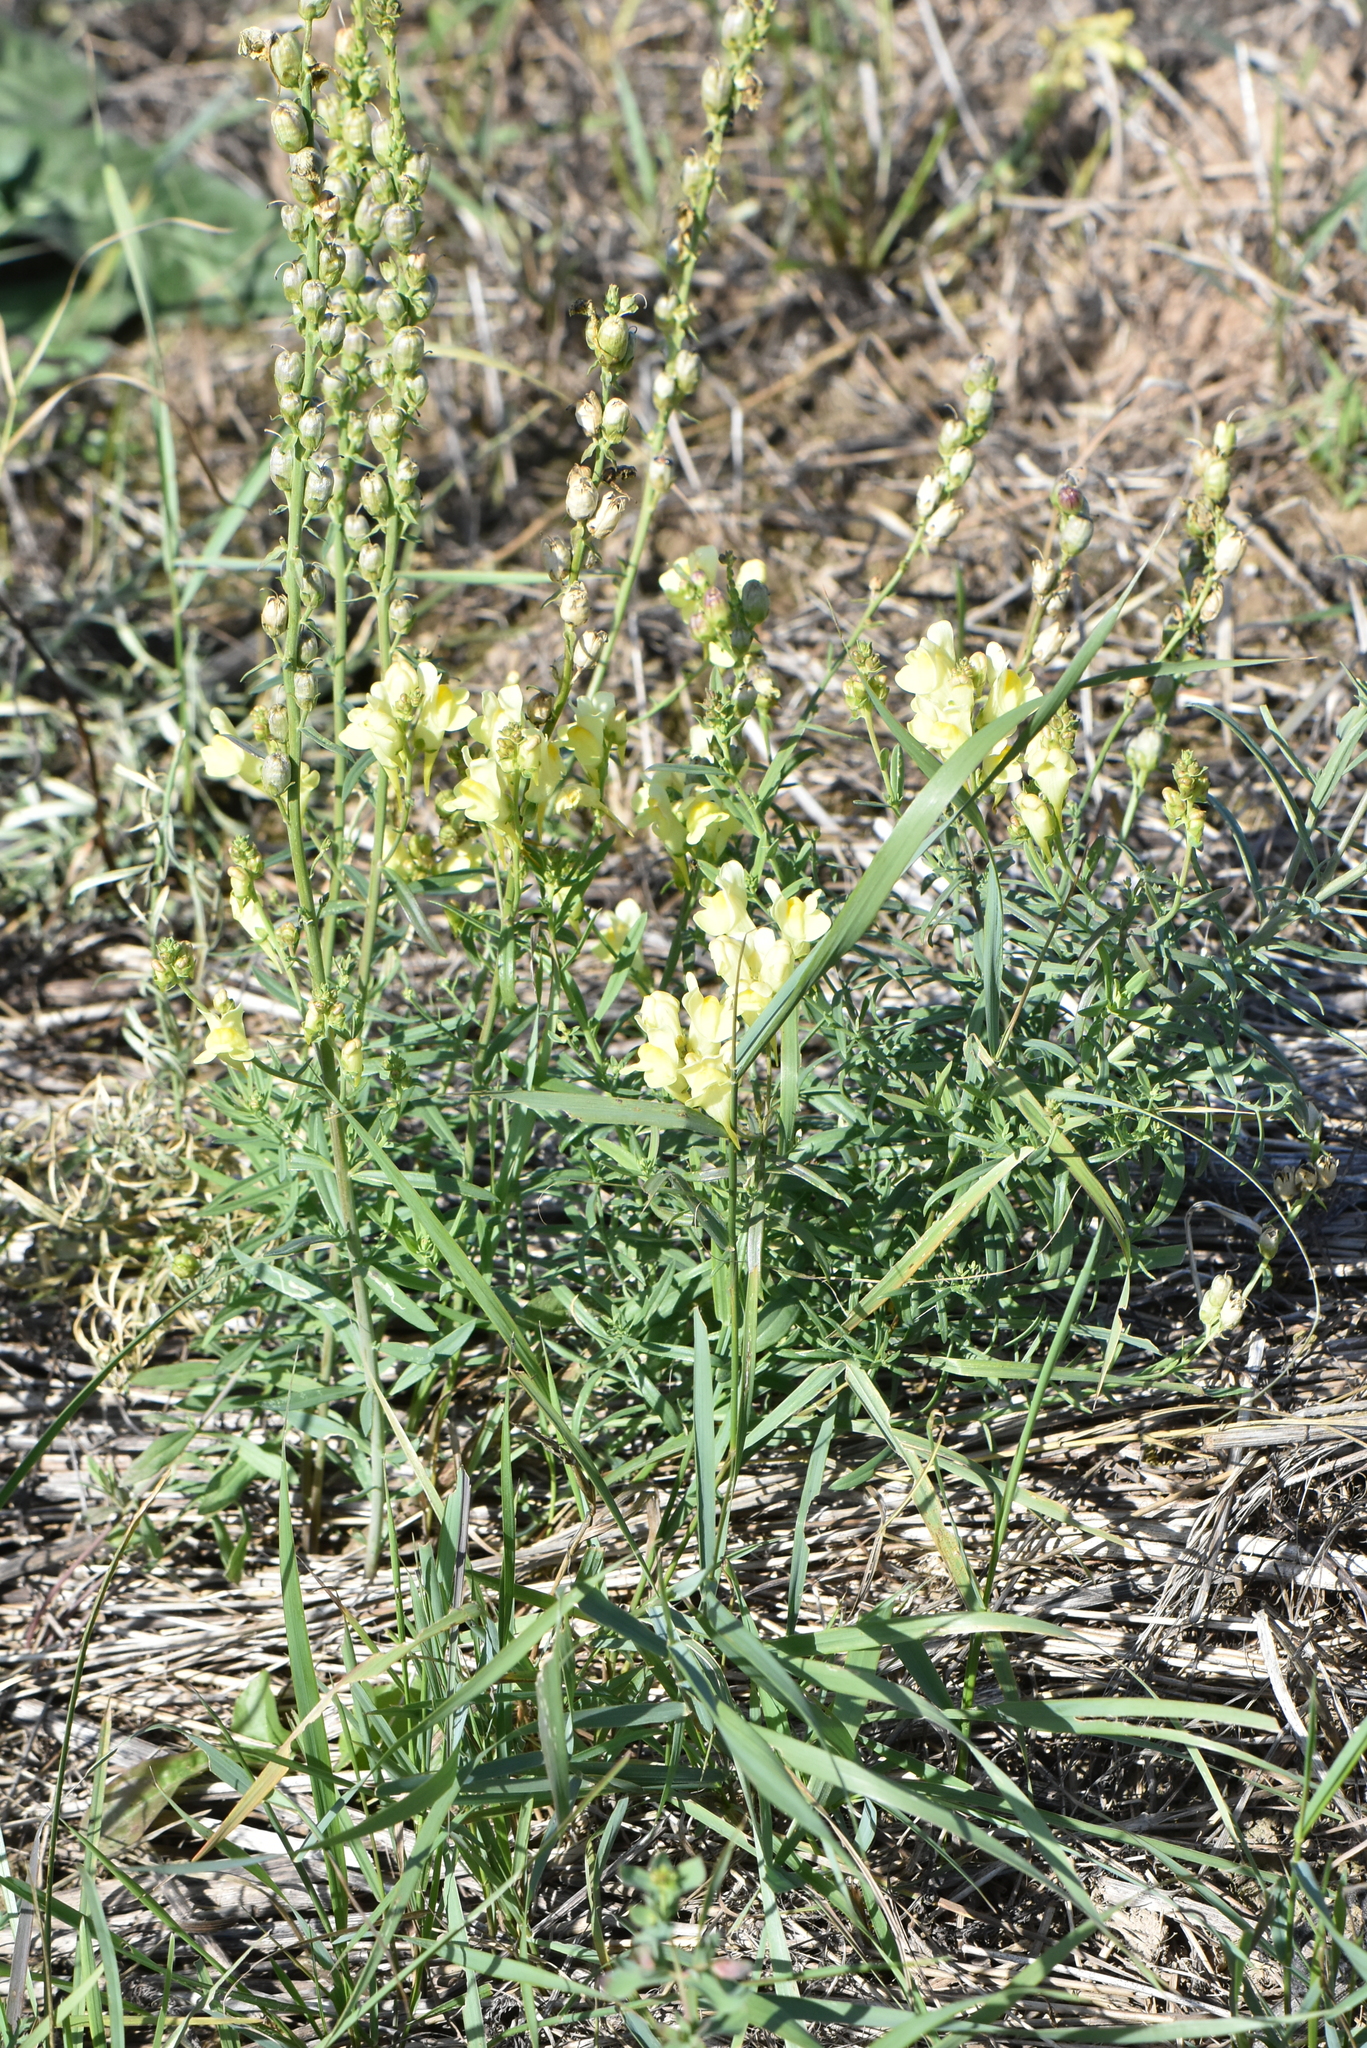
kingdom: Plantae
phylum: Tracheophyta
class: Magnoliopsida
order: Lamiales
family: Plantaginaceae
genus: Linaria
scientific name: Linaria vulgaris
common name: Butter and eggs
